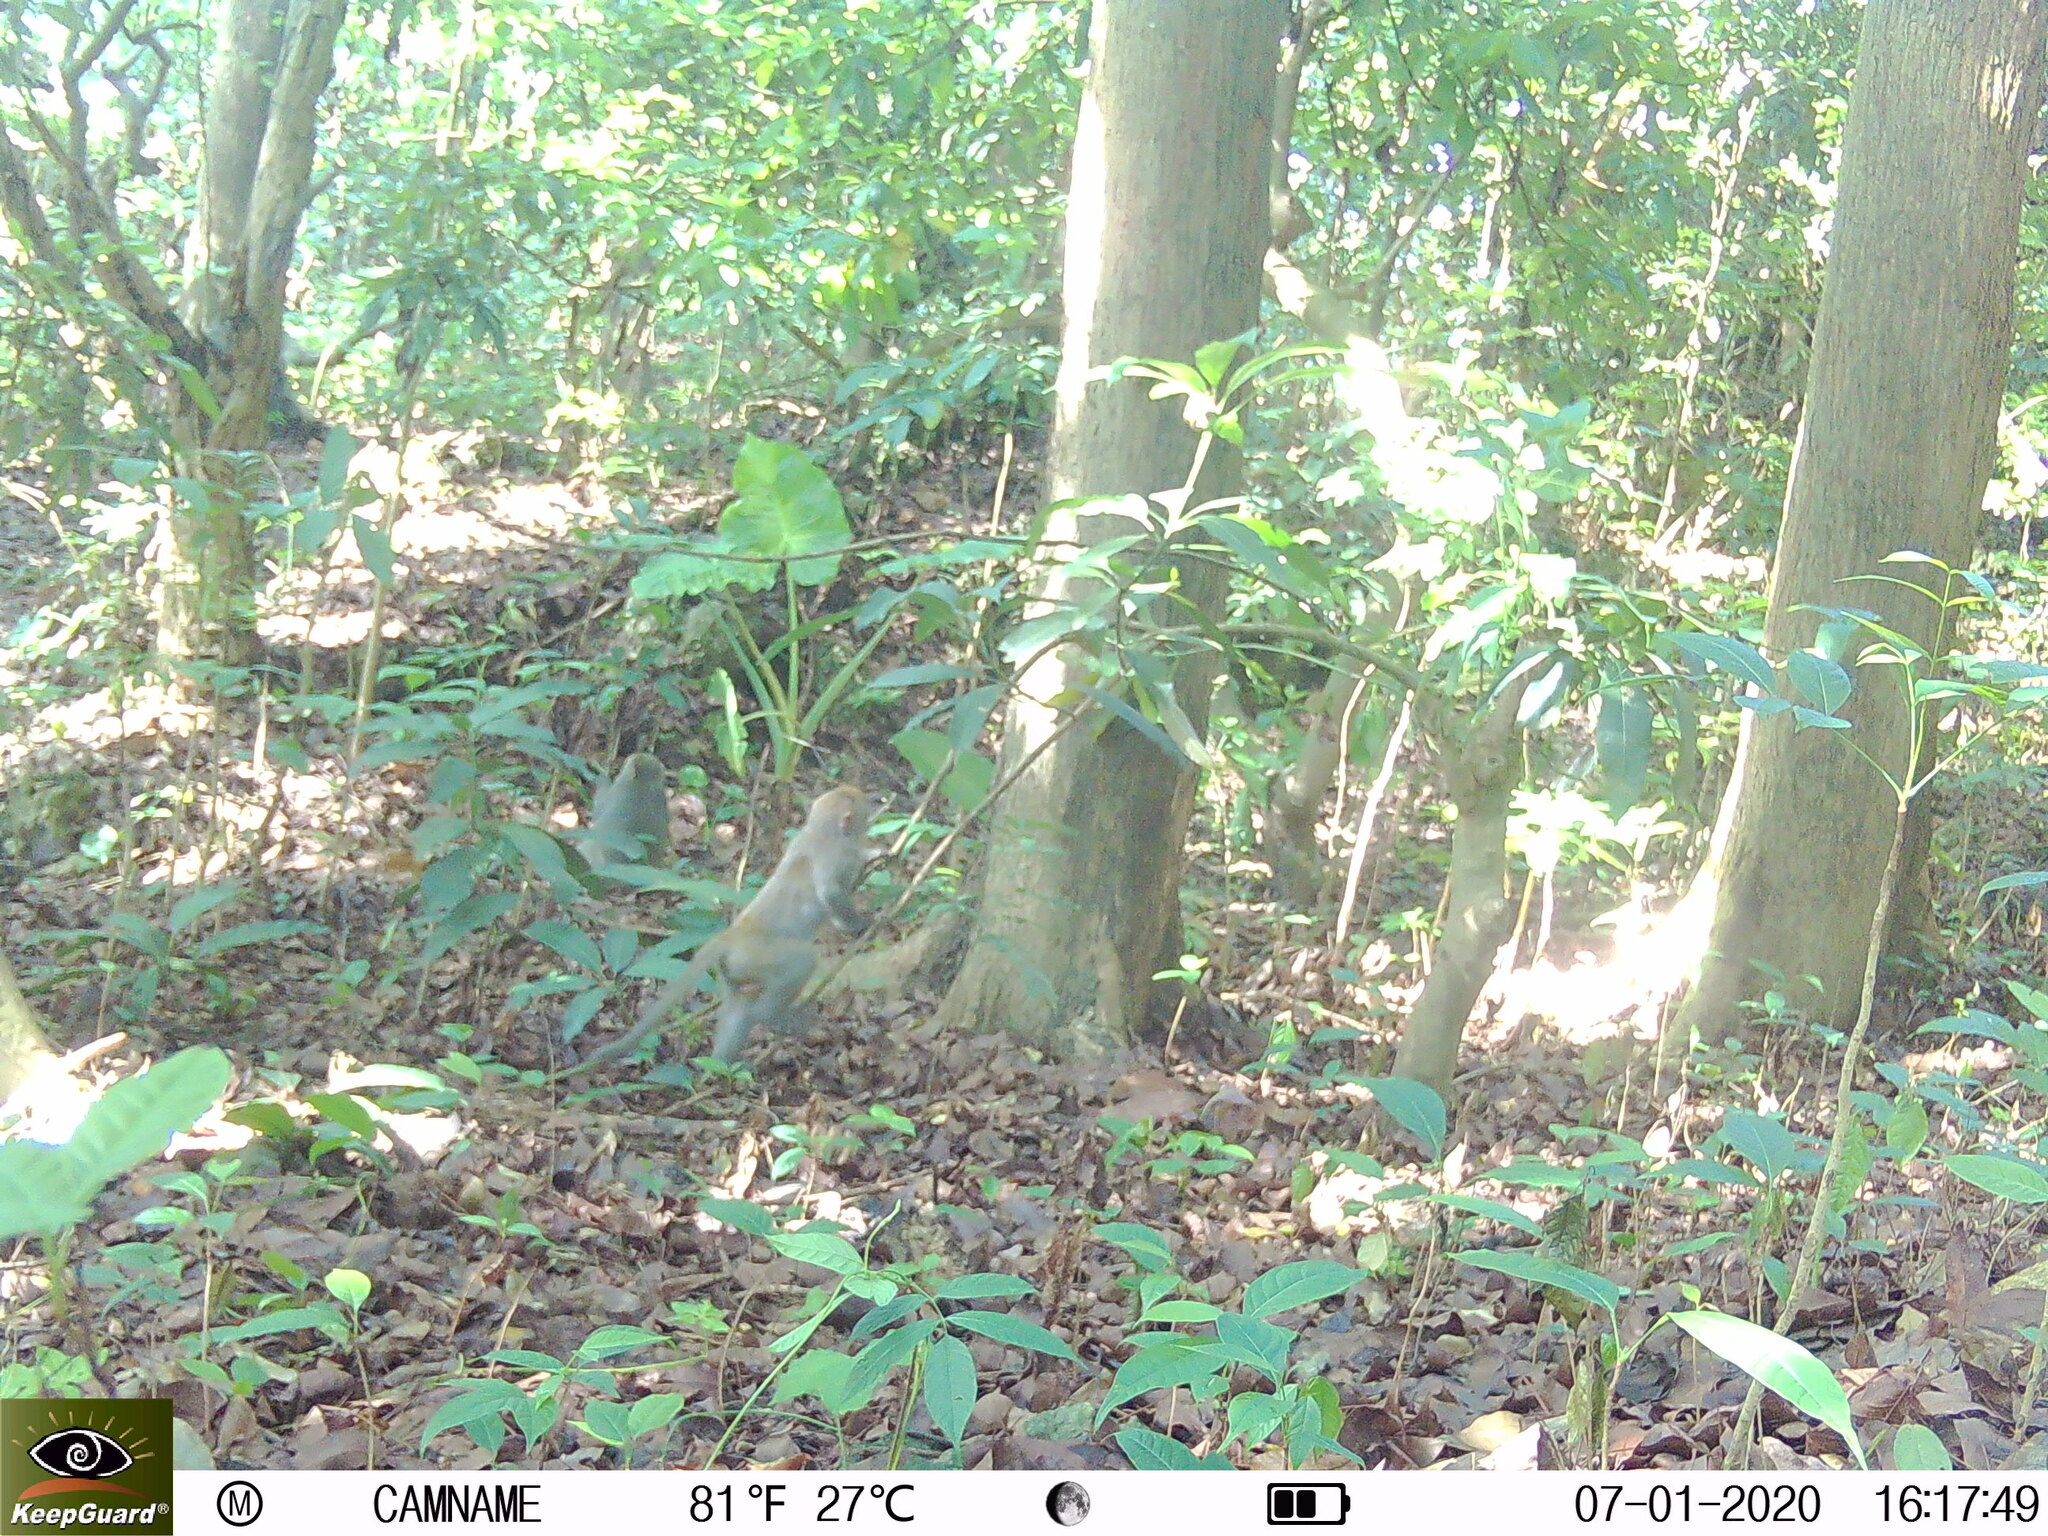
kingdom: Animalia
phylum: Chordata
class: Mammalia
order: Primates
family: Cercopithecidae
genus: Macaca
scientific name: Macaca cyclopis
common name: Formosan rock macaque
